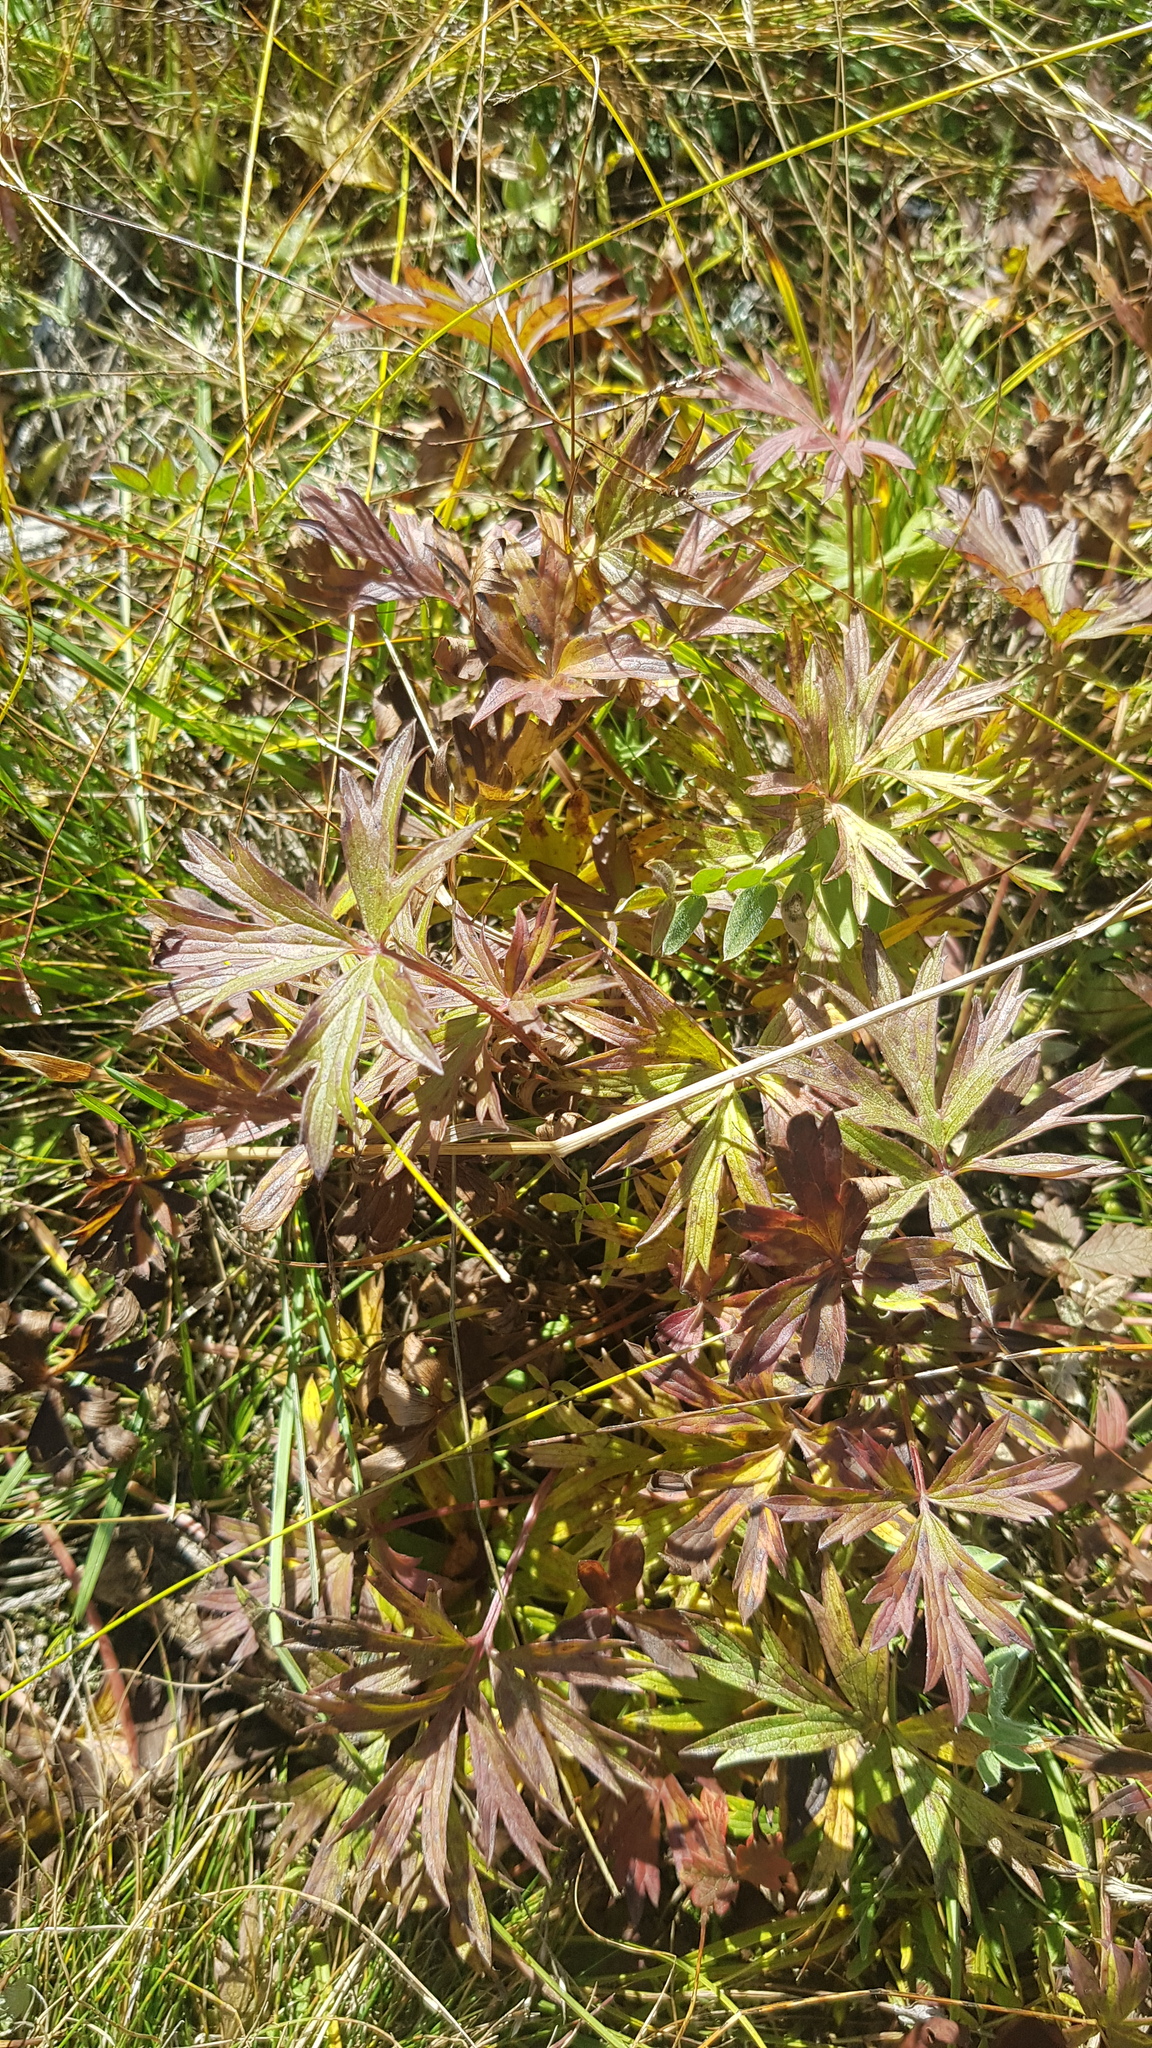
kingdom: Plantae
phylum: Tracheophyta
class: Magnoliopsida
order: Geraniales
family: Geraniaceae
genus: Geranium
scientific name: Geranium pratense
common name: Meadow crane's-bill
